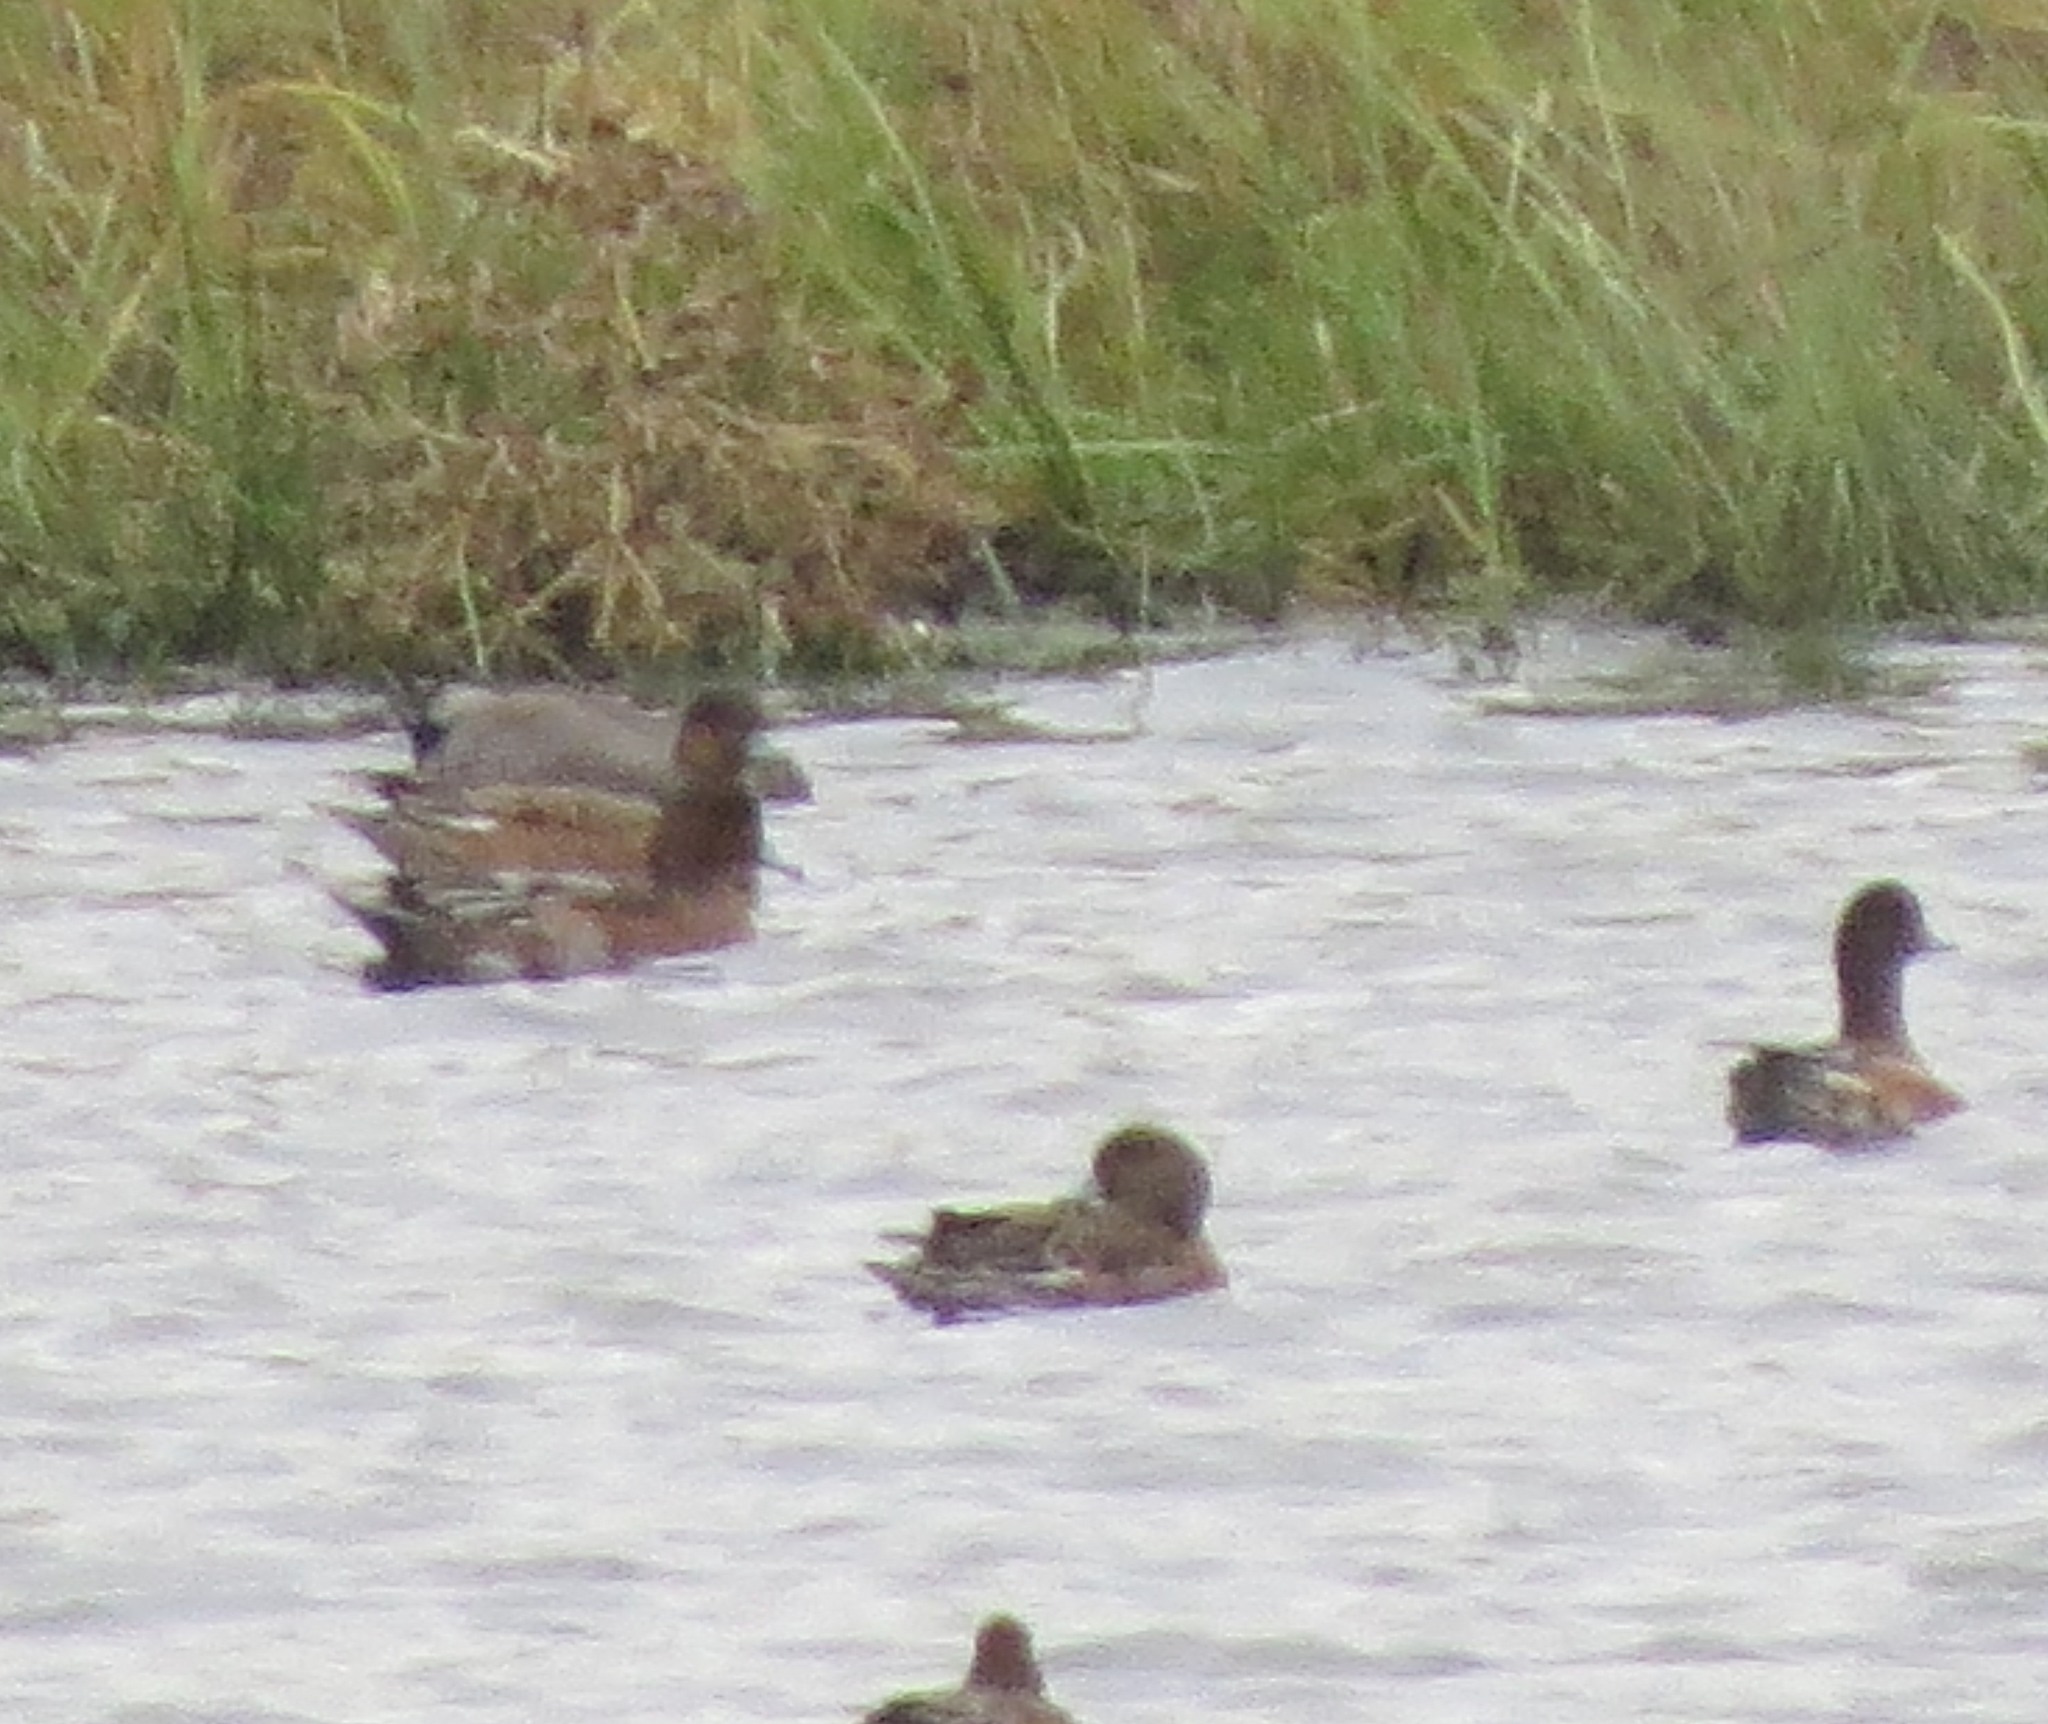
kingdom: Animalia
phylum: Chordata
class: Aves
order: Anseriformes
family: Anatidae
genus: Mareca
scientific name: Mareca penelope
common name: Eurasian wigeon
